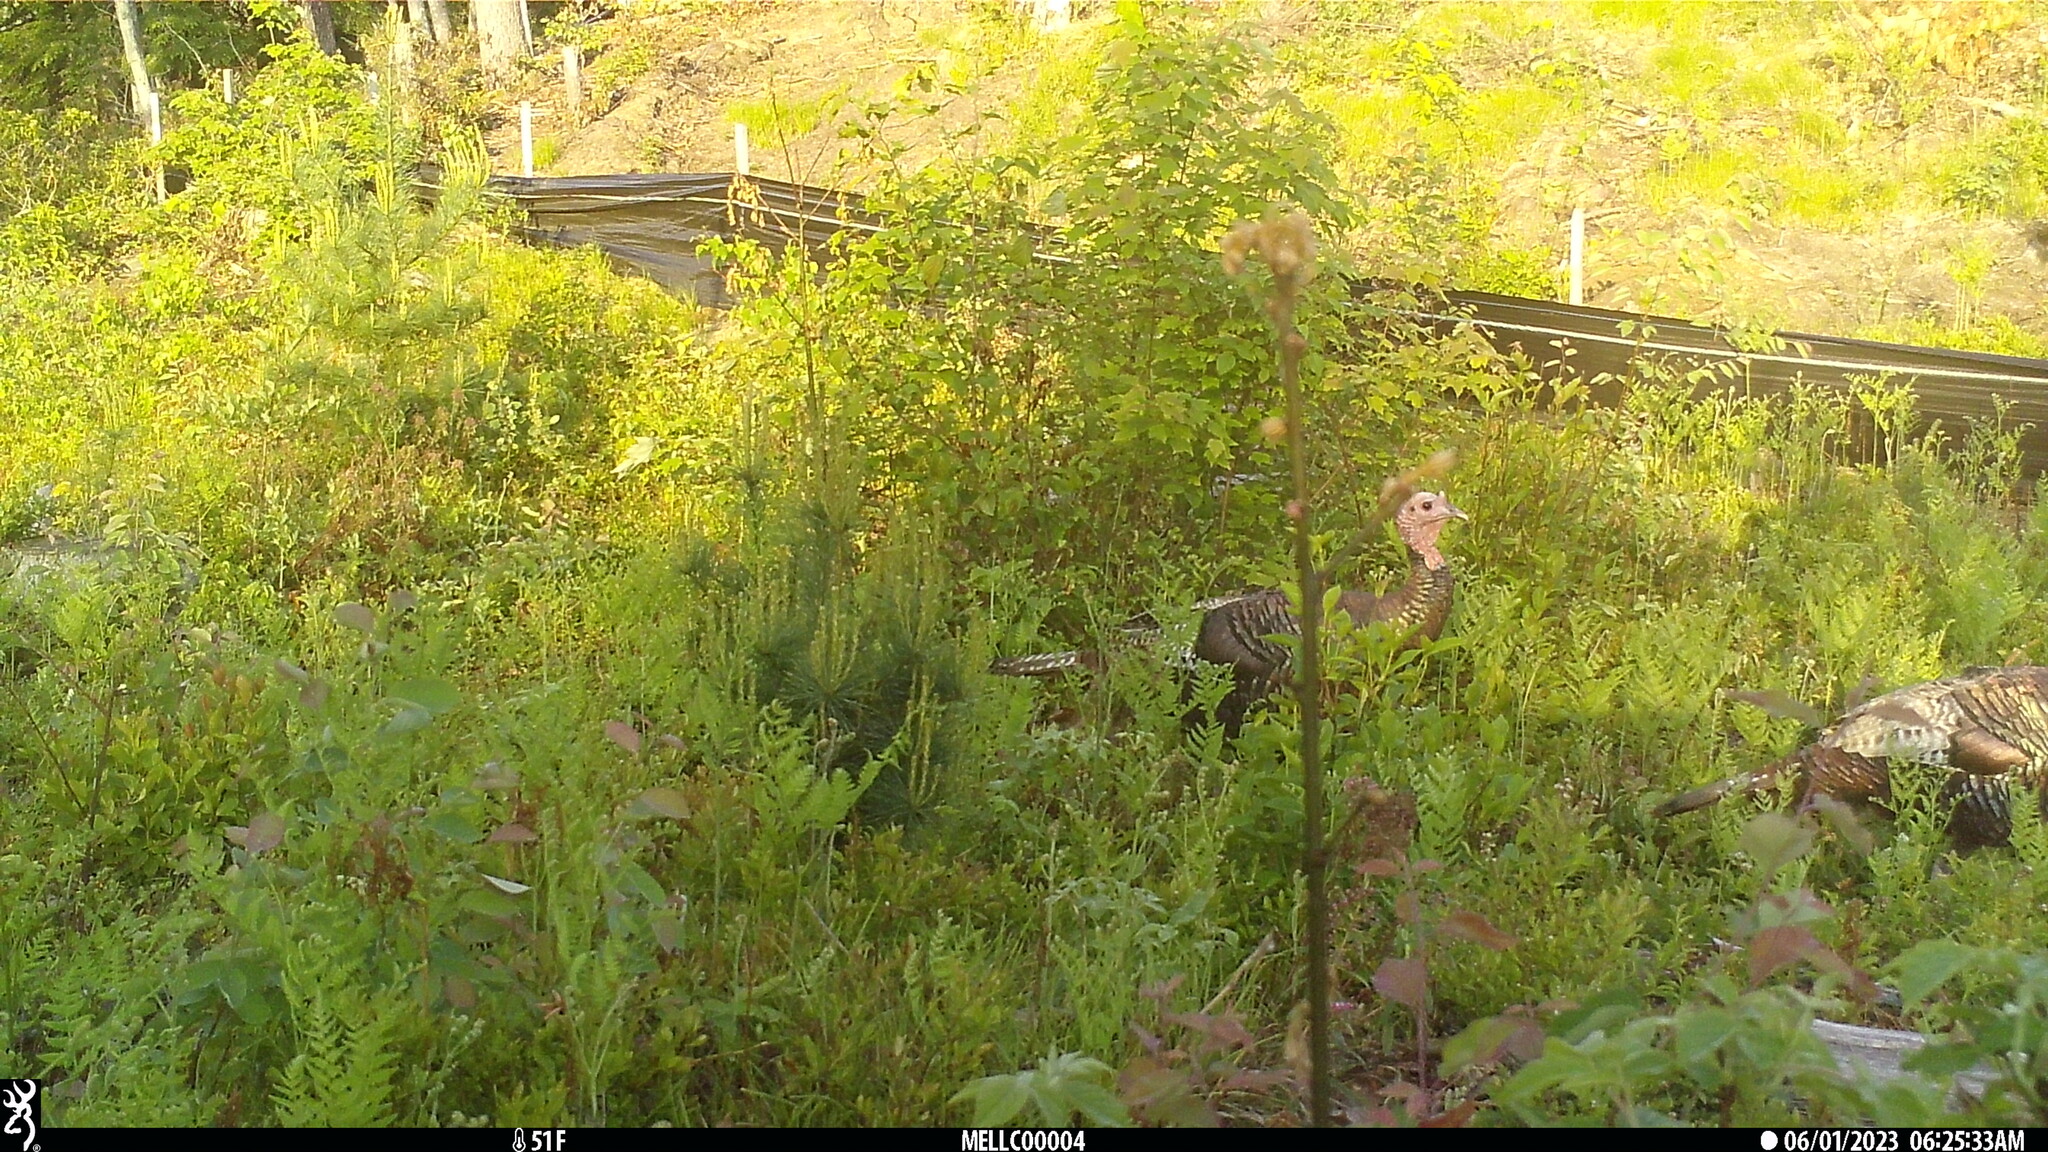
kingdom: Animalia
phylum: Chordata
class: Aves
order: Galliformes
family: Phasianidae
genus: Meleagris
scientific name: Meleagris gallopavo
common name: Wild turkey
